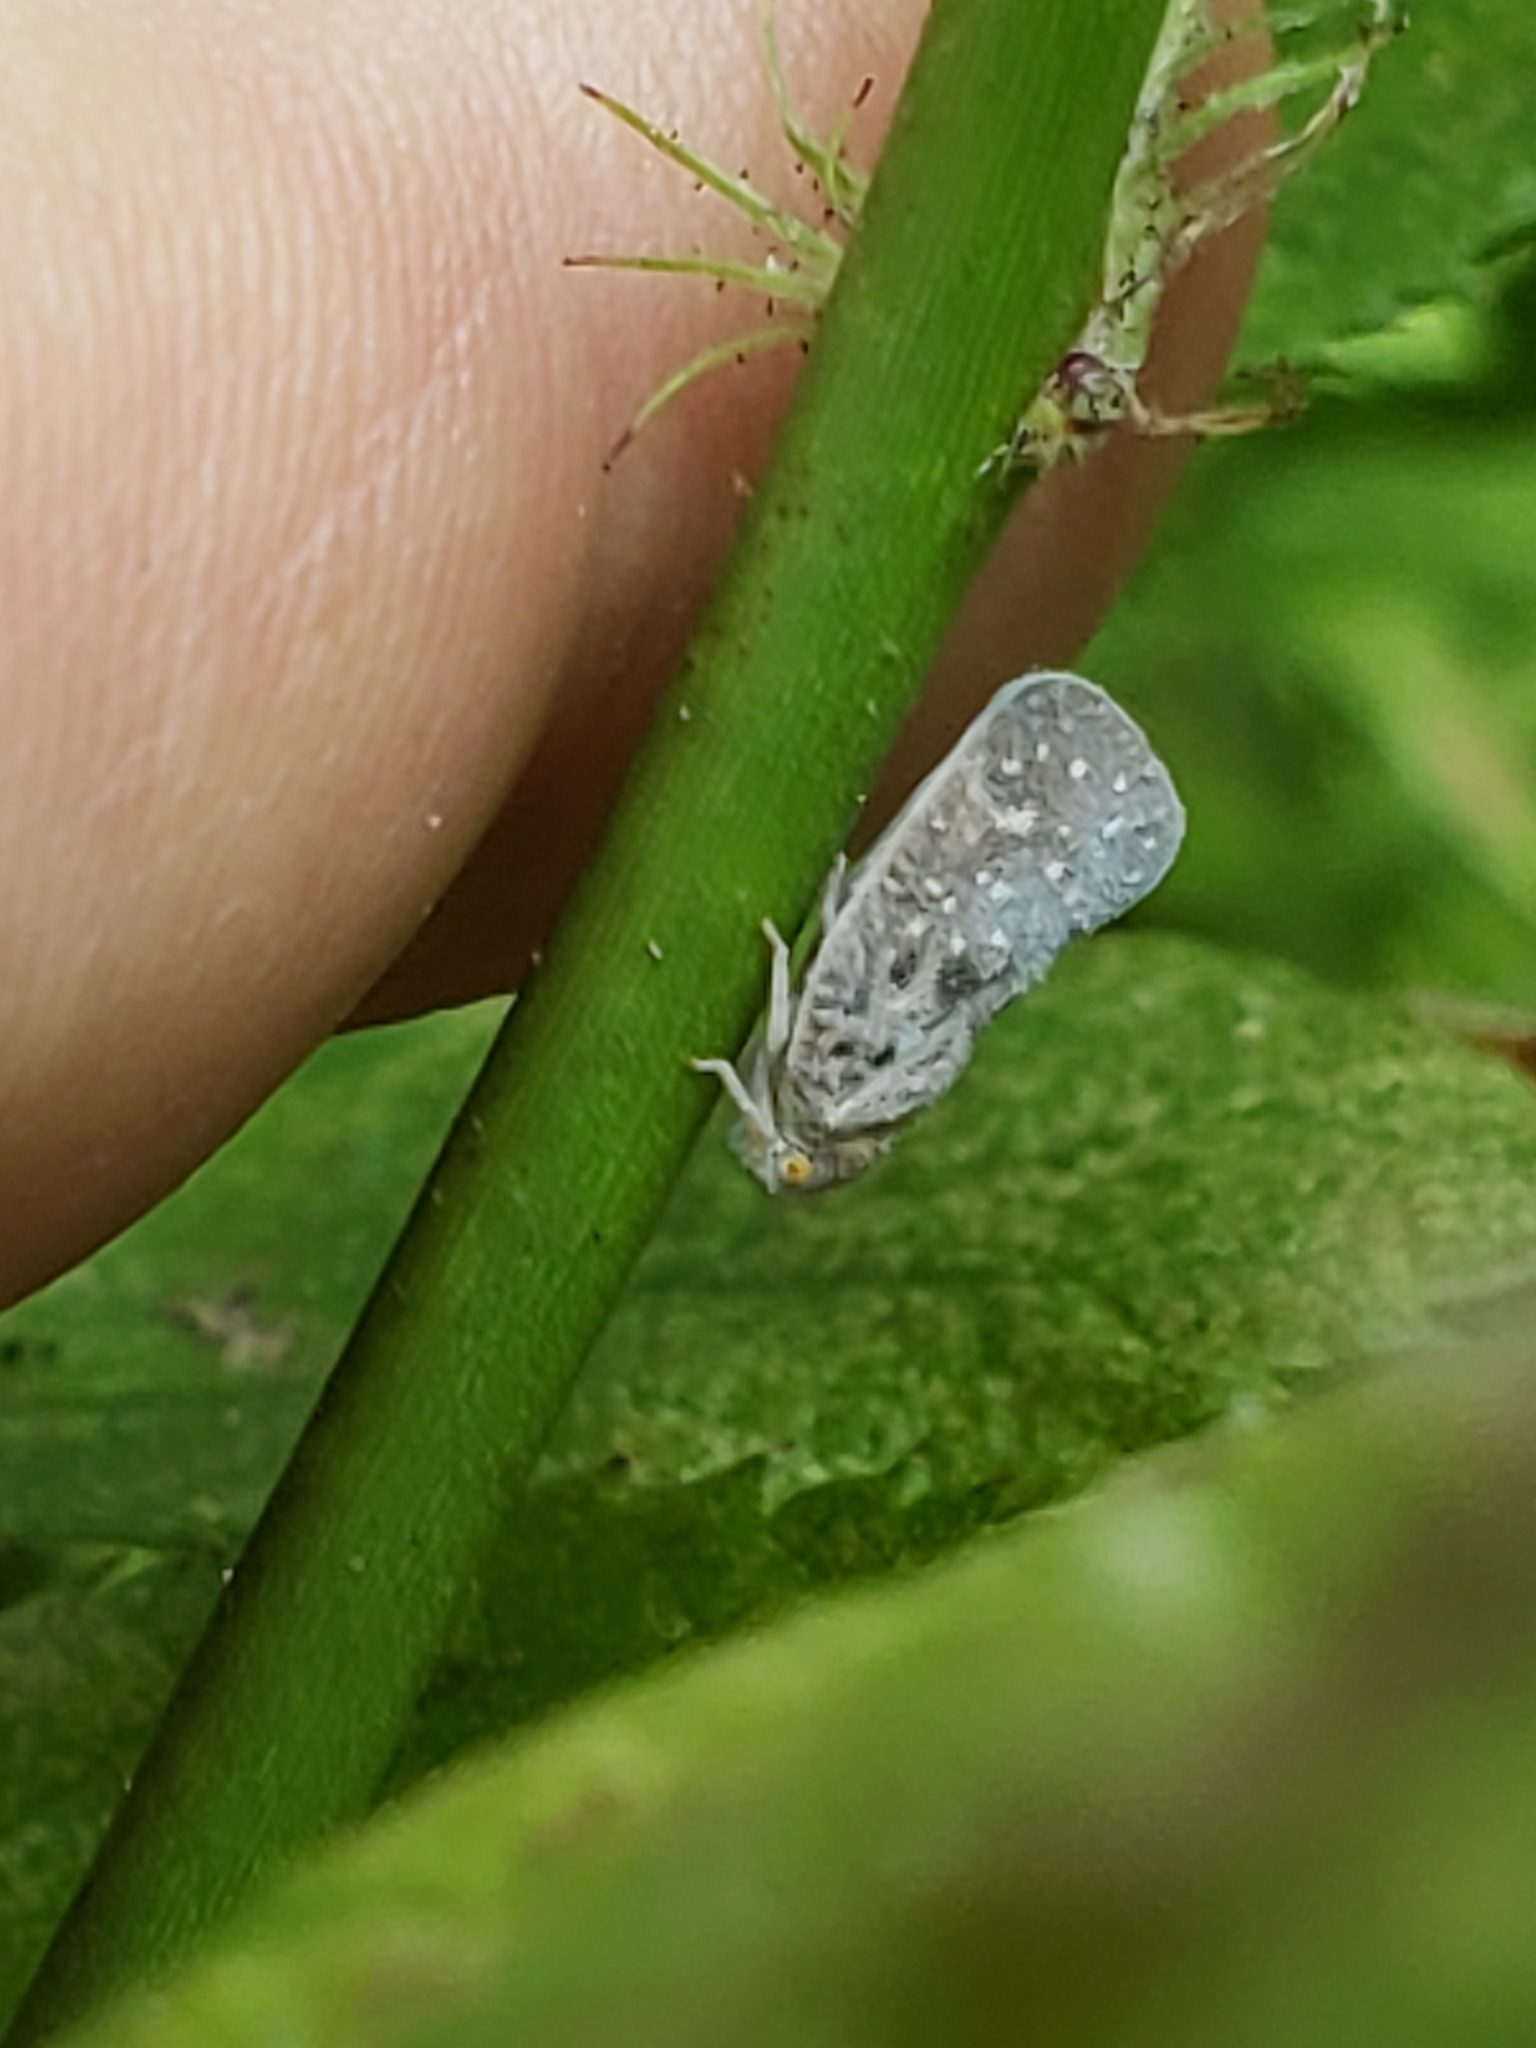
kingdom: Animalia
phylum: Arthropoda
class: Insecta
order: Hemiptera
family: Flatidae
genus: Metcalfa
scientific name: Metcalfa pruinosa
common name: Citrus flatid planthopper
